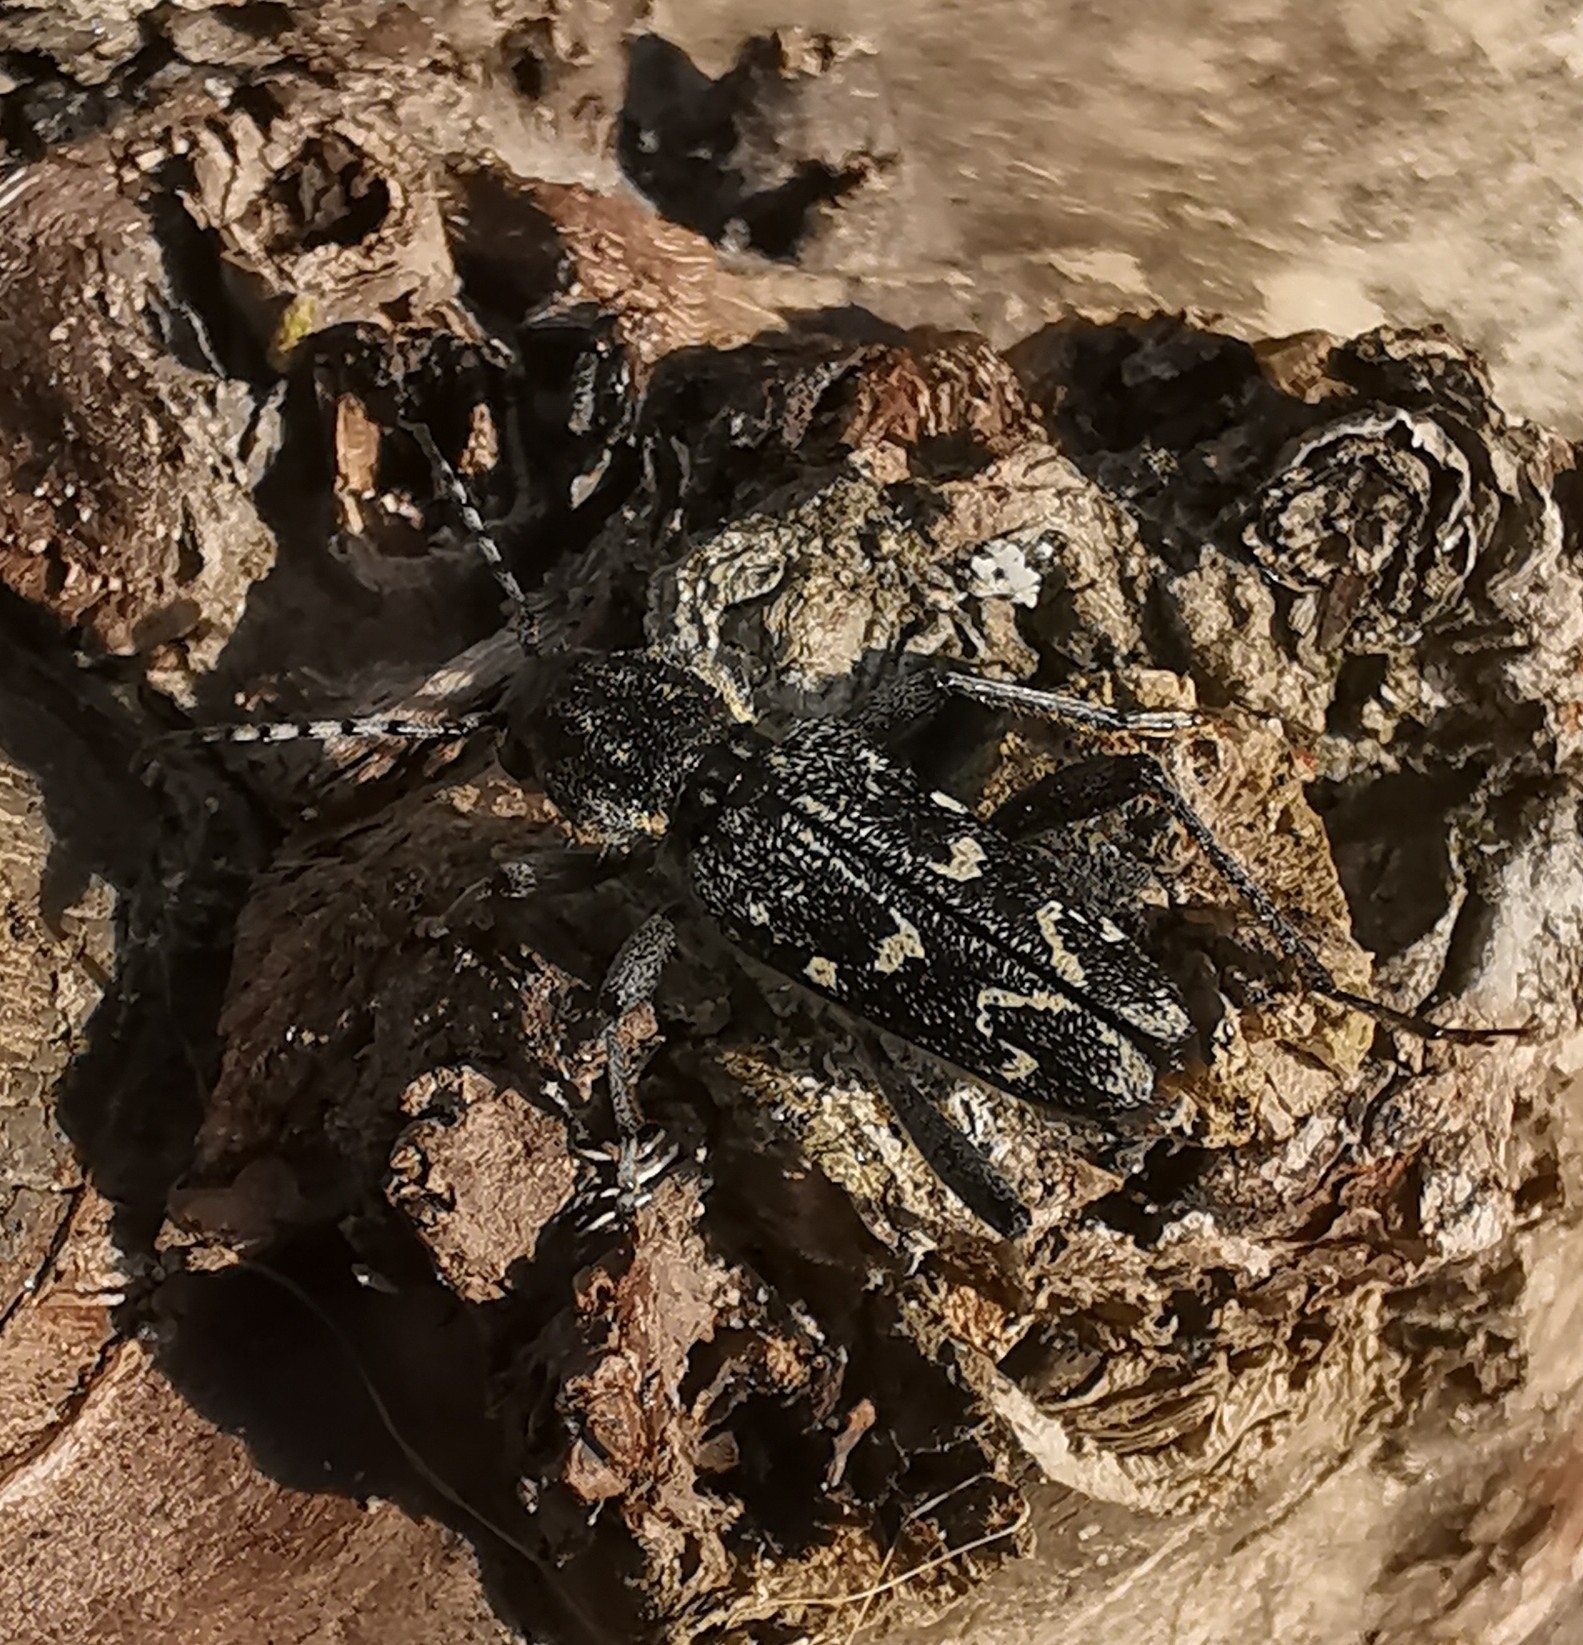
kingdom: Animalia
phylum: Arthropoda
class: Insecta
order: Coleoptera
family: Cerambycidae
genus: Xylotrechus
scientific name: Xylotrechus rusticus
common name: Grey tiger long-horned beetle
